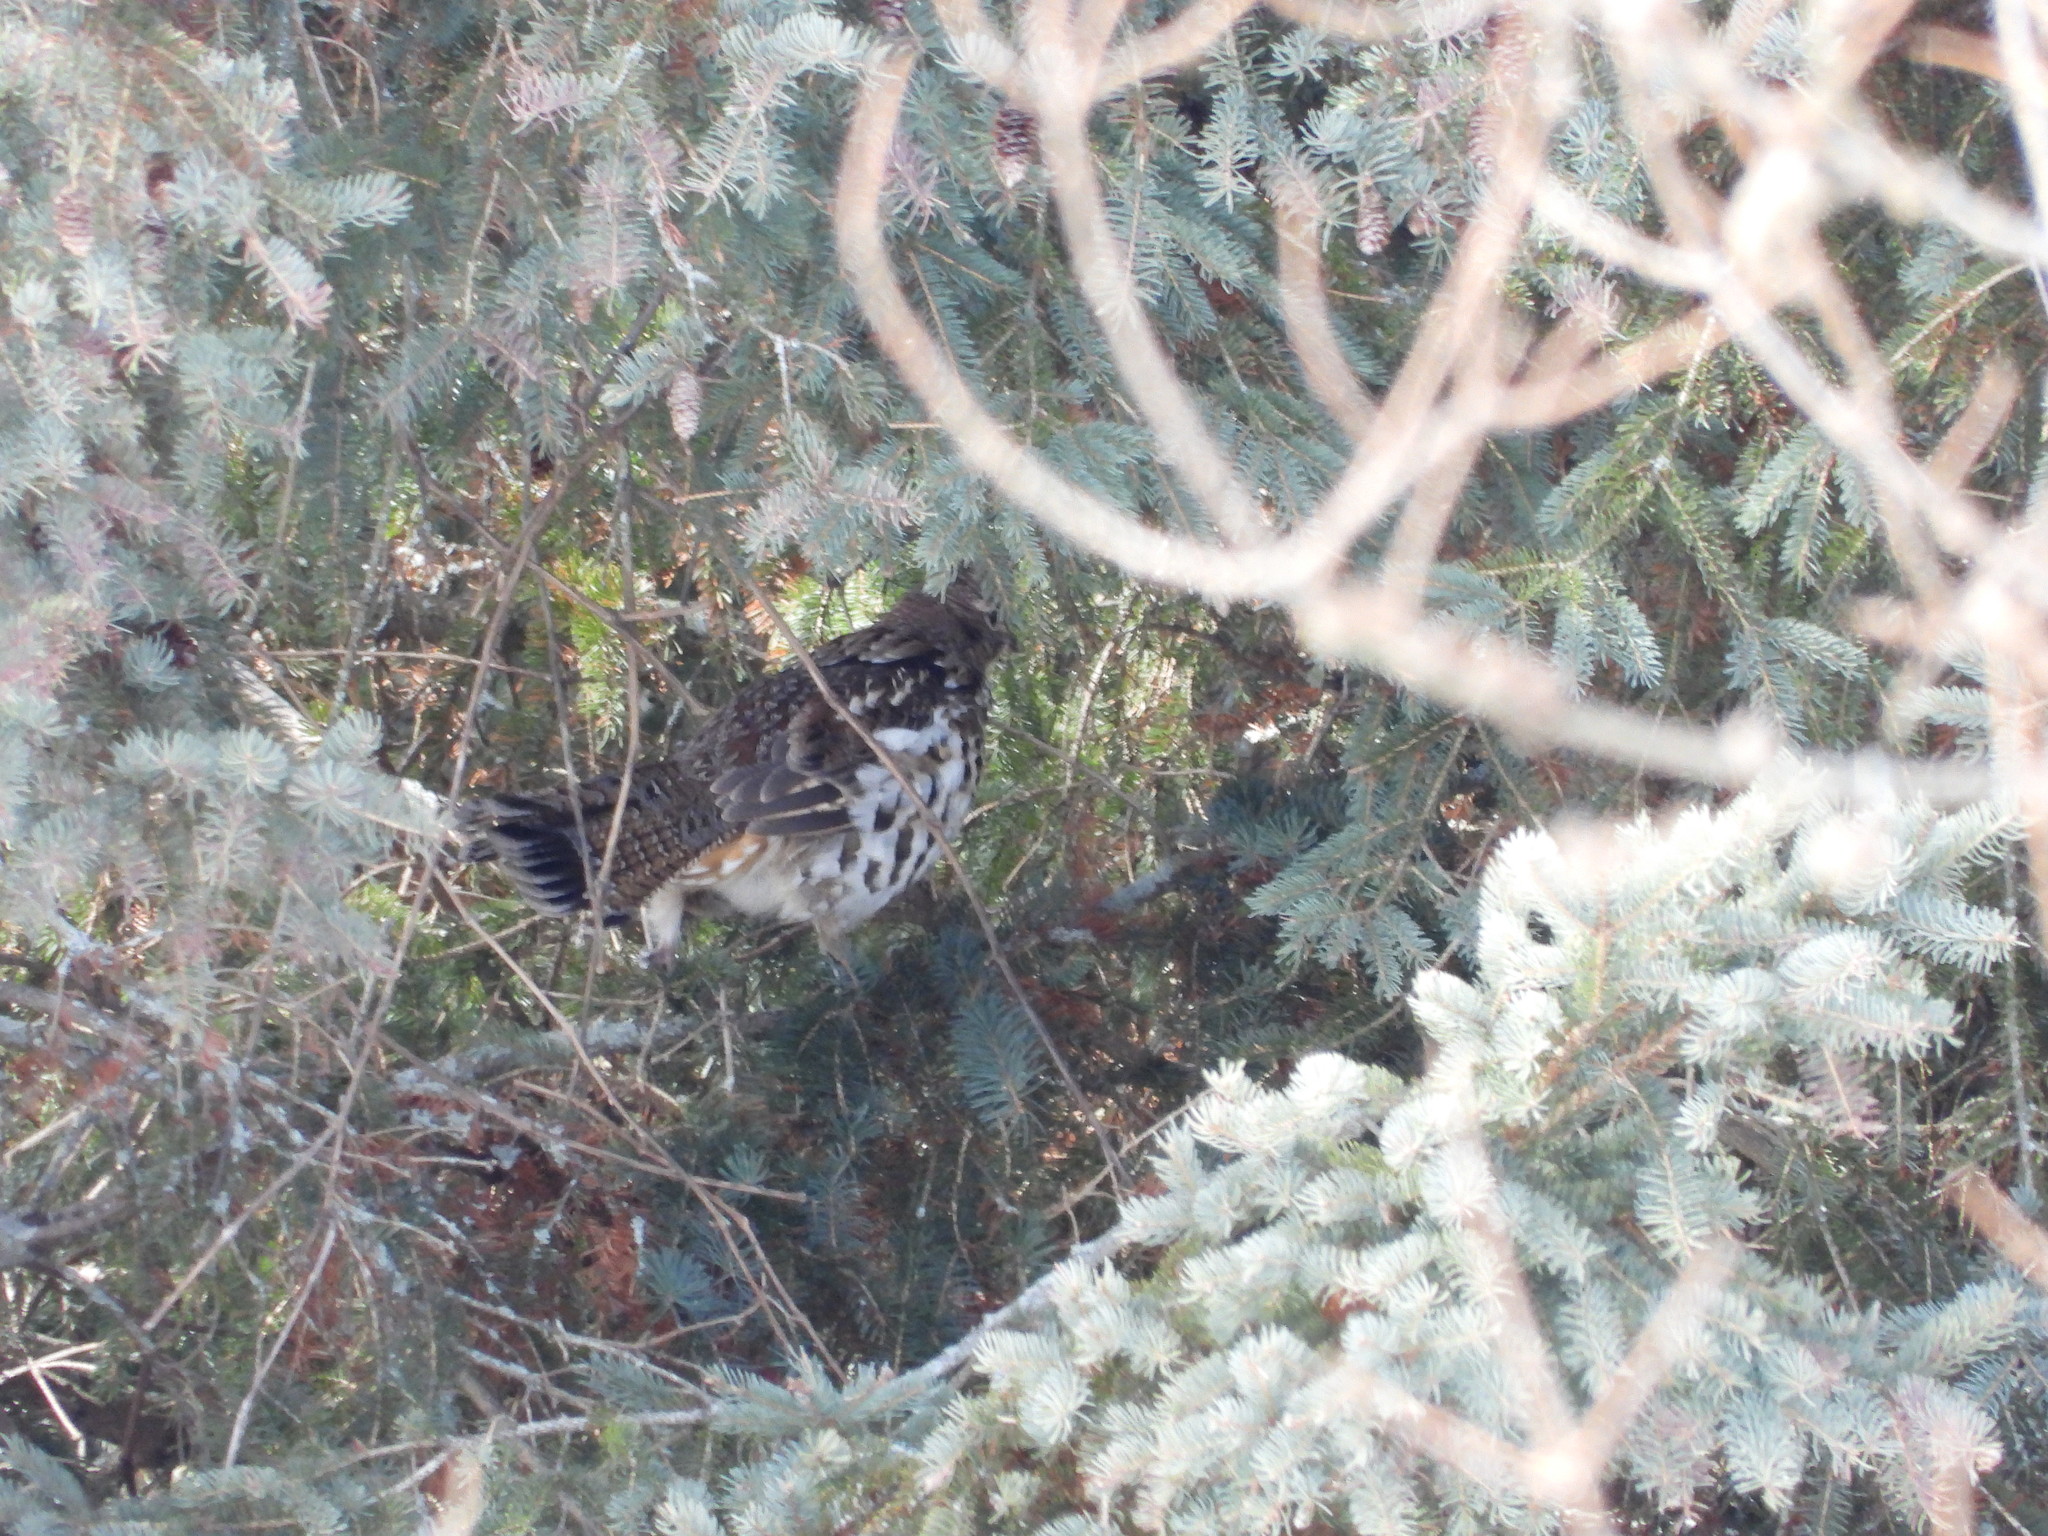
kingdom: Animalia
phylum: Chordata
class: Aves
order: Galliformes
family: Phasianidae
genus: Bonasa
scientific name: Bonasa umbellus
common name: Ruffed grouse
